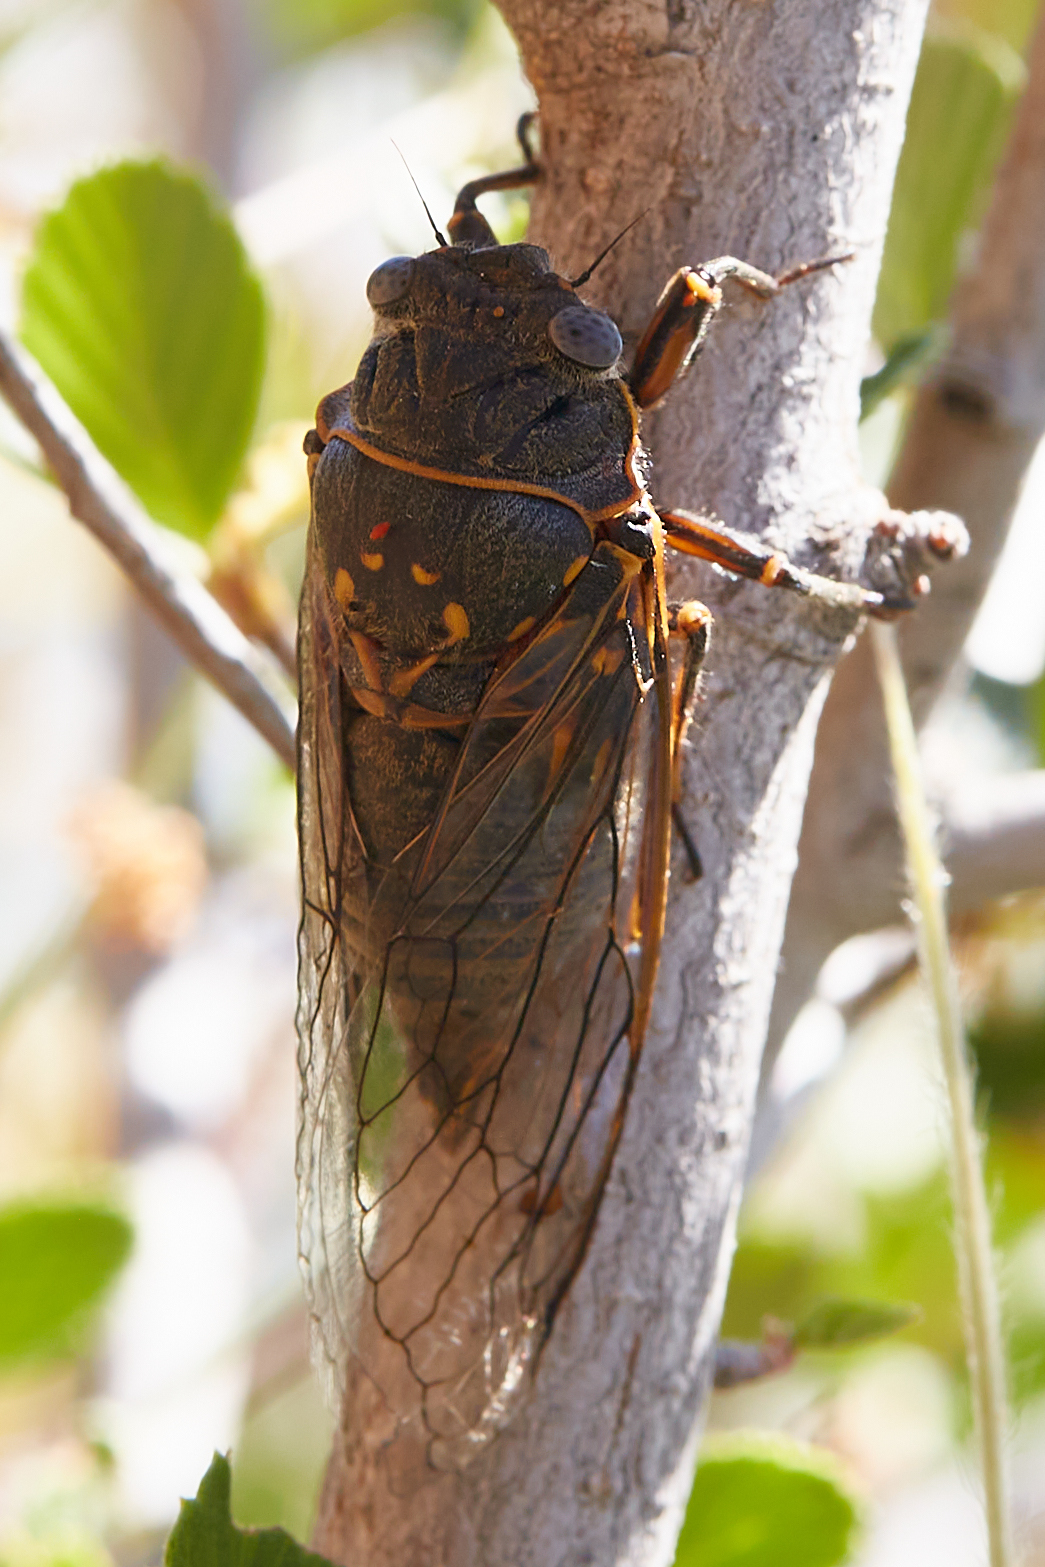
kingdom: Animalia
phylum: Arthropoda
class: Insecta
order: Hemiptera
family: Cicadidae
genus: Okanagana
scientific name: Okanagana mariposa
